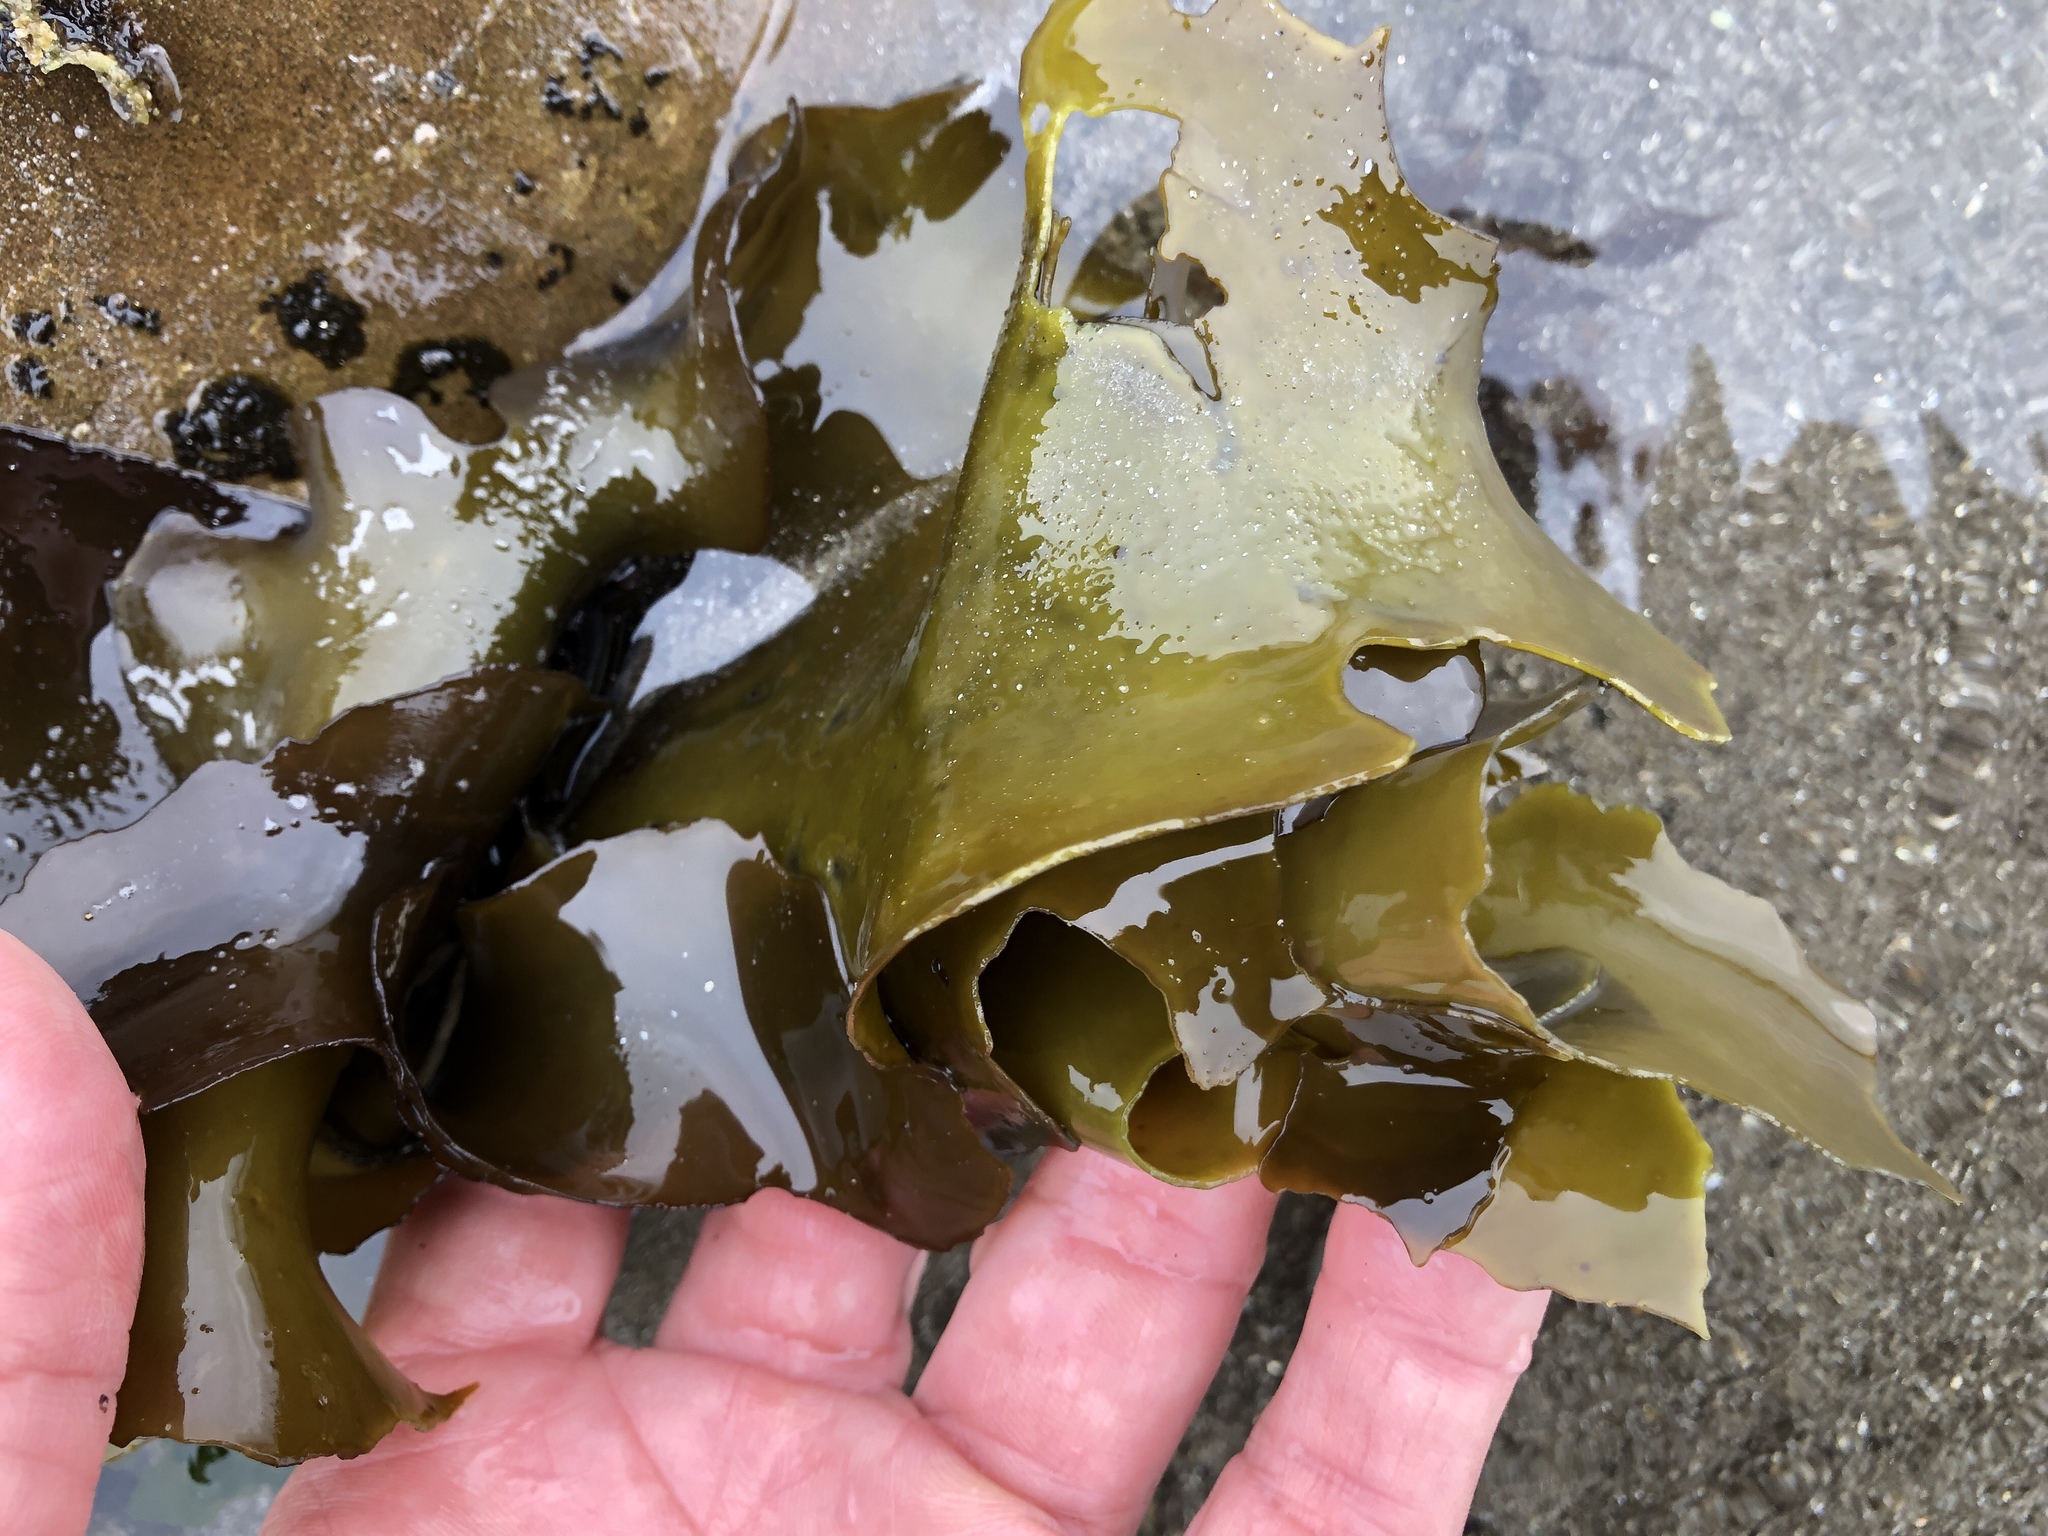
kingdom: Plantae
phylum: Rhodophyta
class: Florideophyceae
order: Gigartinales
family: Gigartinaceae
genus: Mazzaella
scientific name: Mazzaella flaccida
